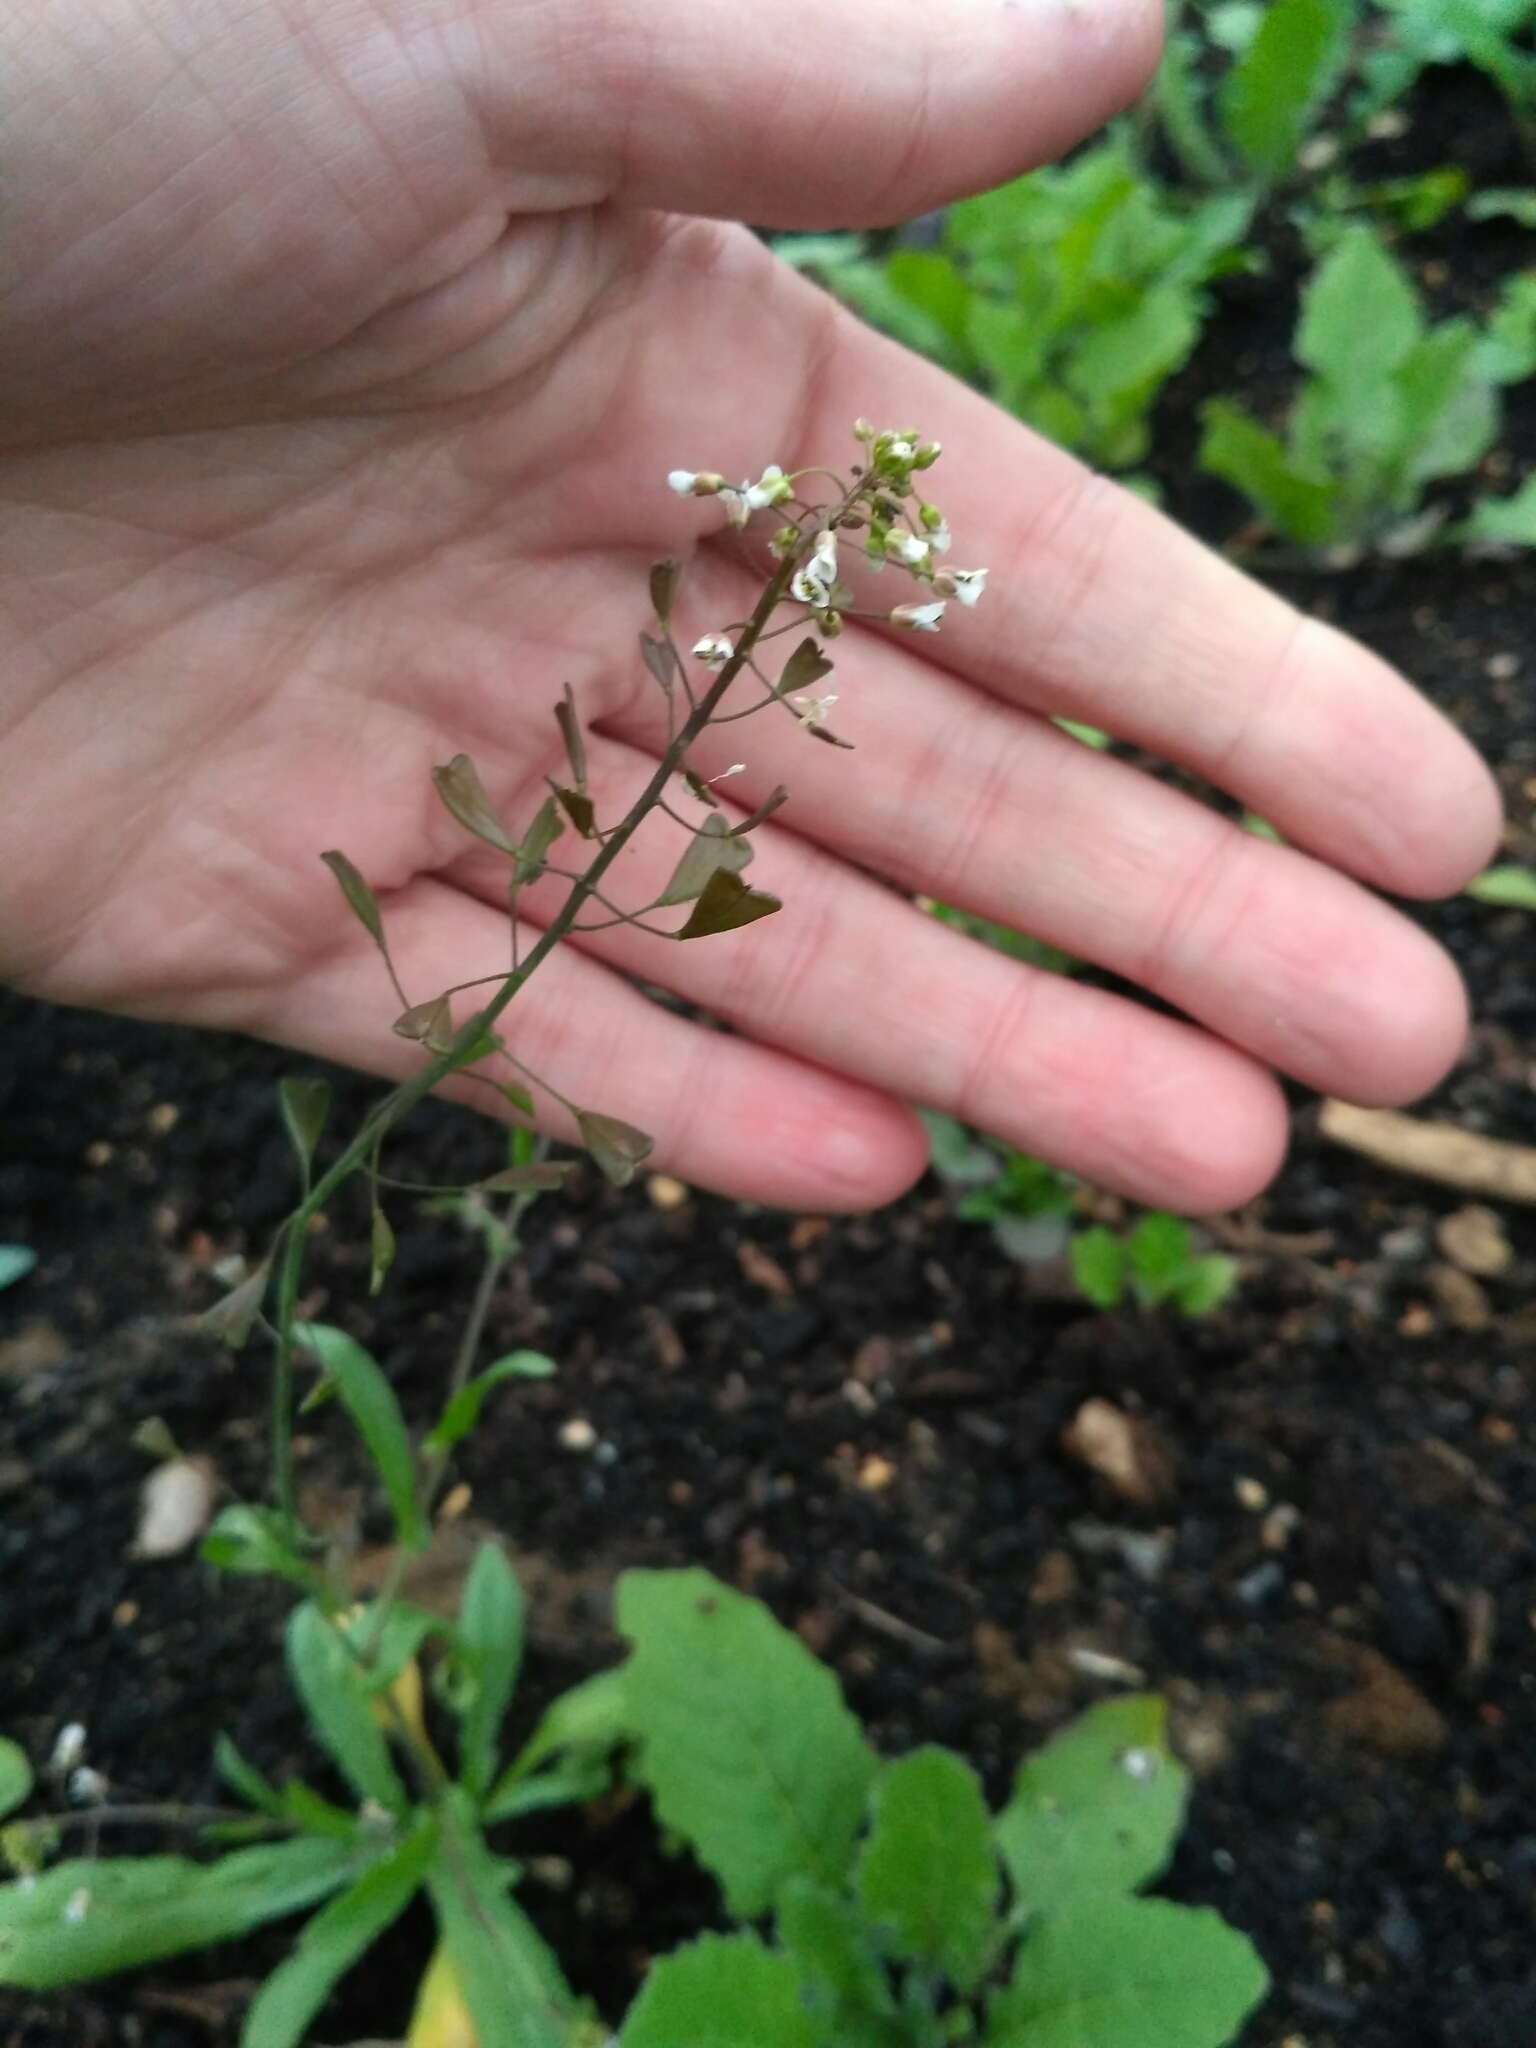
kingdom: Plantae
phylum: Tracheophyta
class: Magnoliopsida
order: Brassicales
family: Brassicaceae
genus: Capsella
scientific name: Capsella bursa-pastoris
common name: Shepherd's purse
